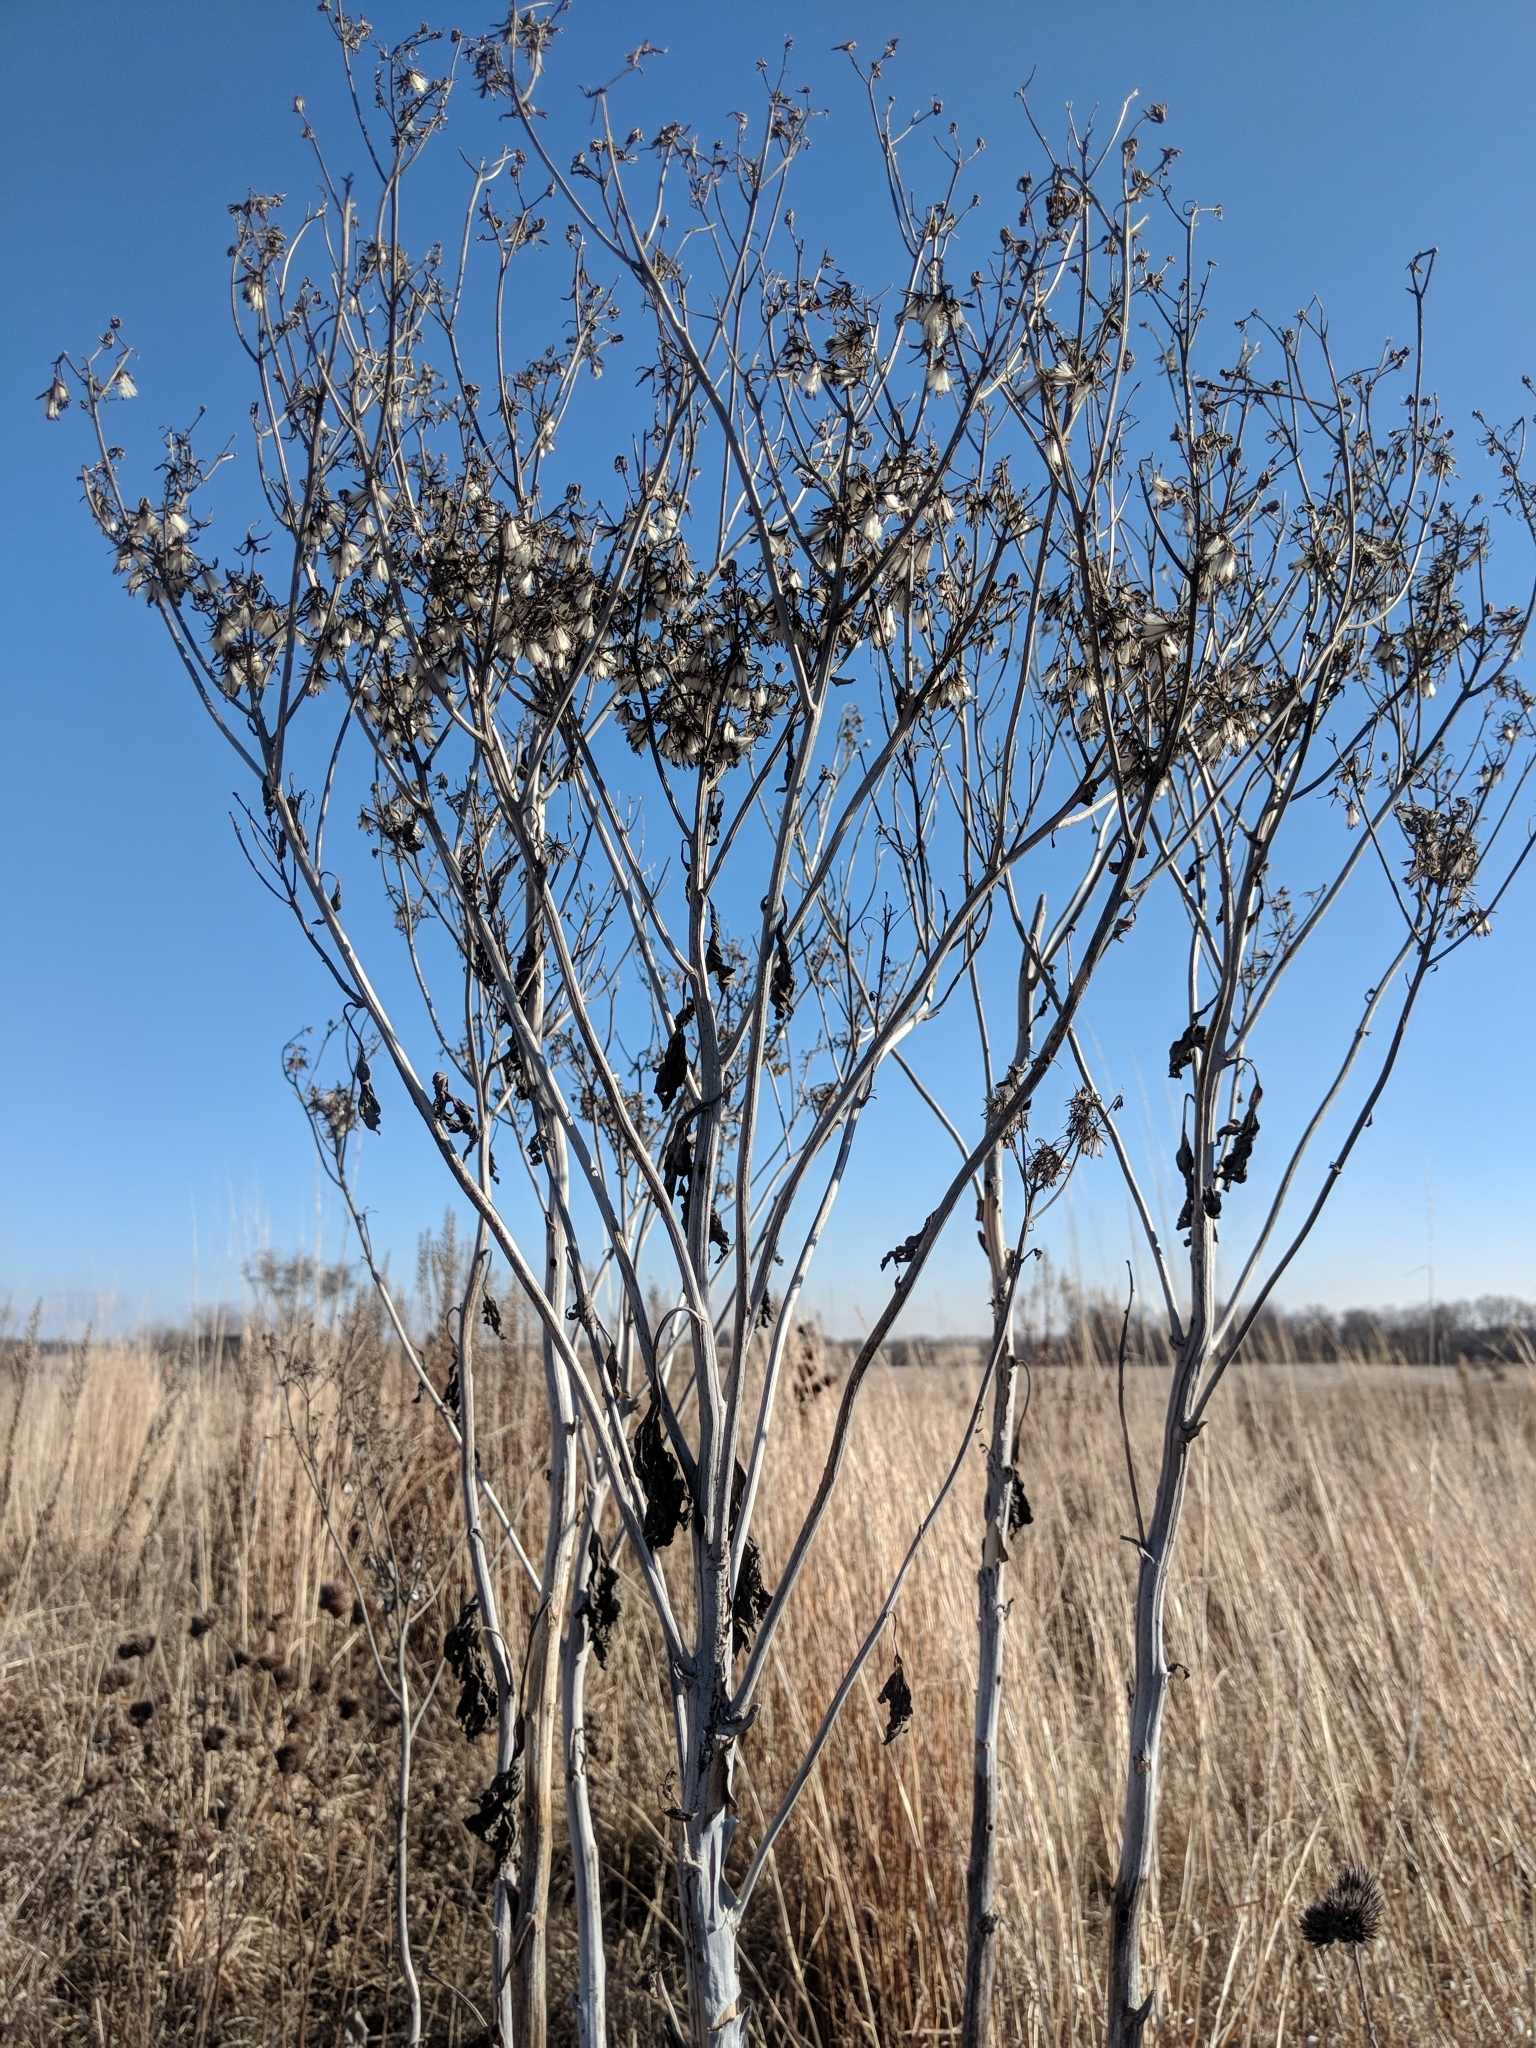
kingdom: Plantae
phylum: Tracheophyta
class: Magnoliopsida
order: Asterales
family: Asteraceae
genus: Arnoglossum
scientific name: Arnoglossum atriplicifolium
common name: Pale indian-plantain
